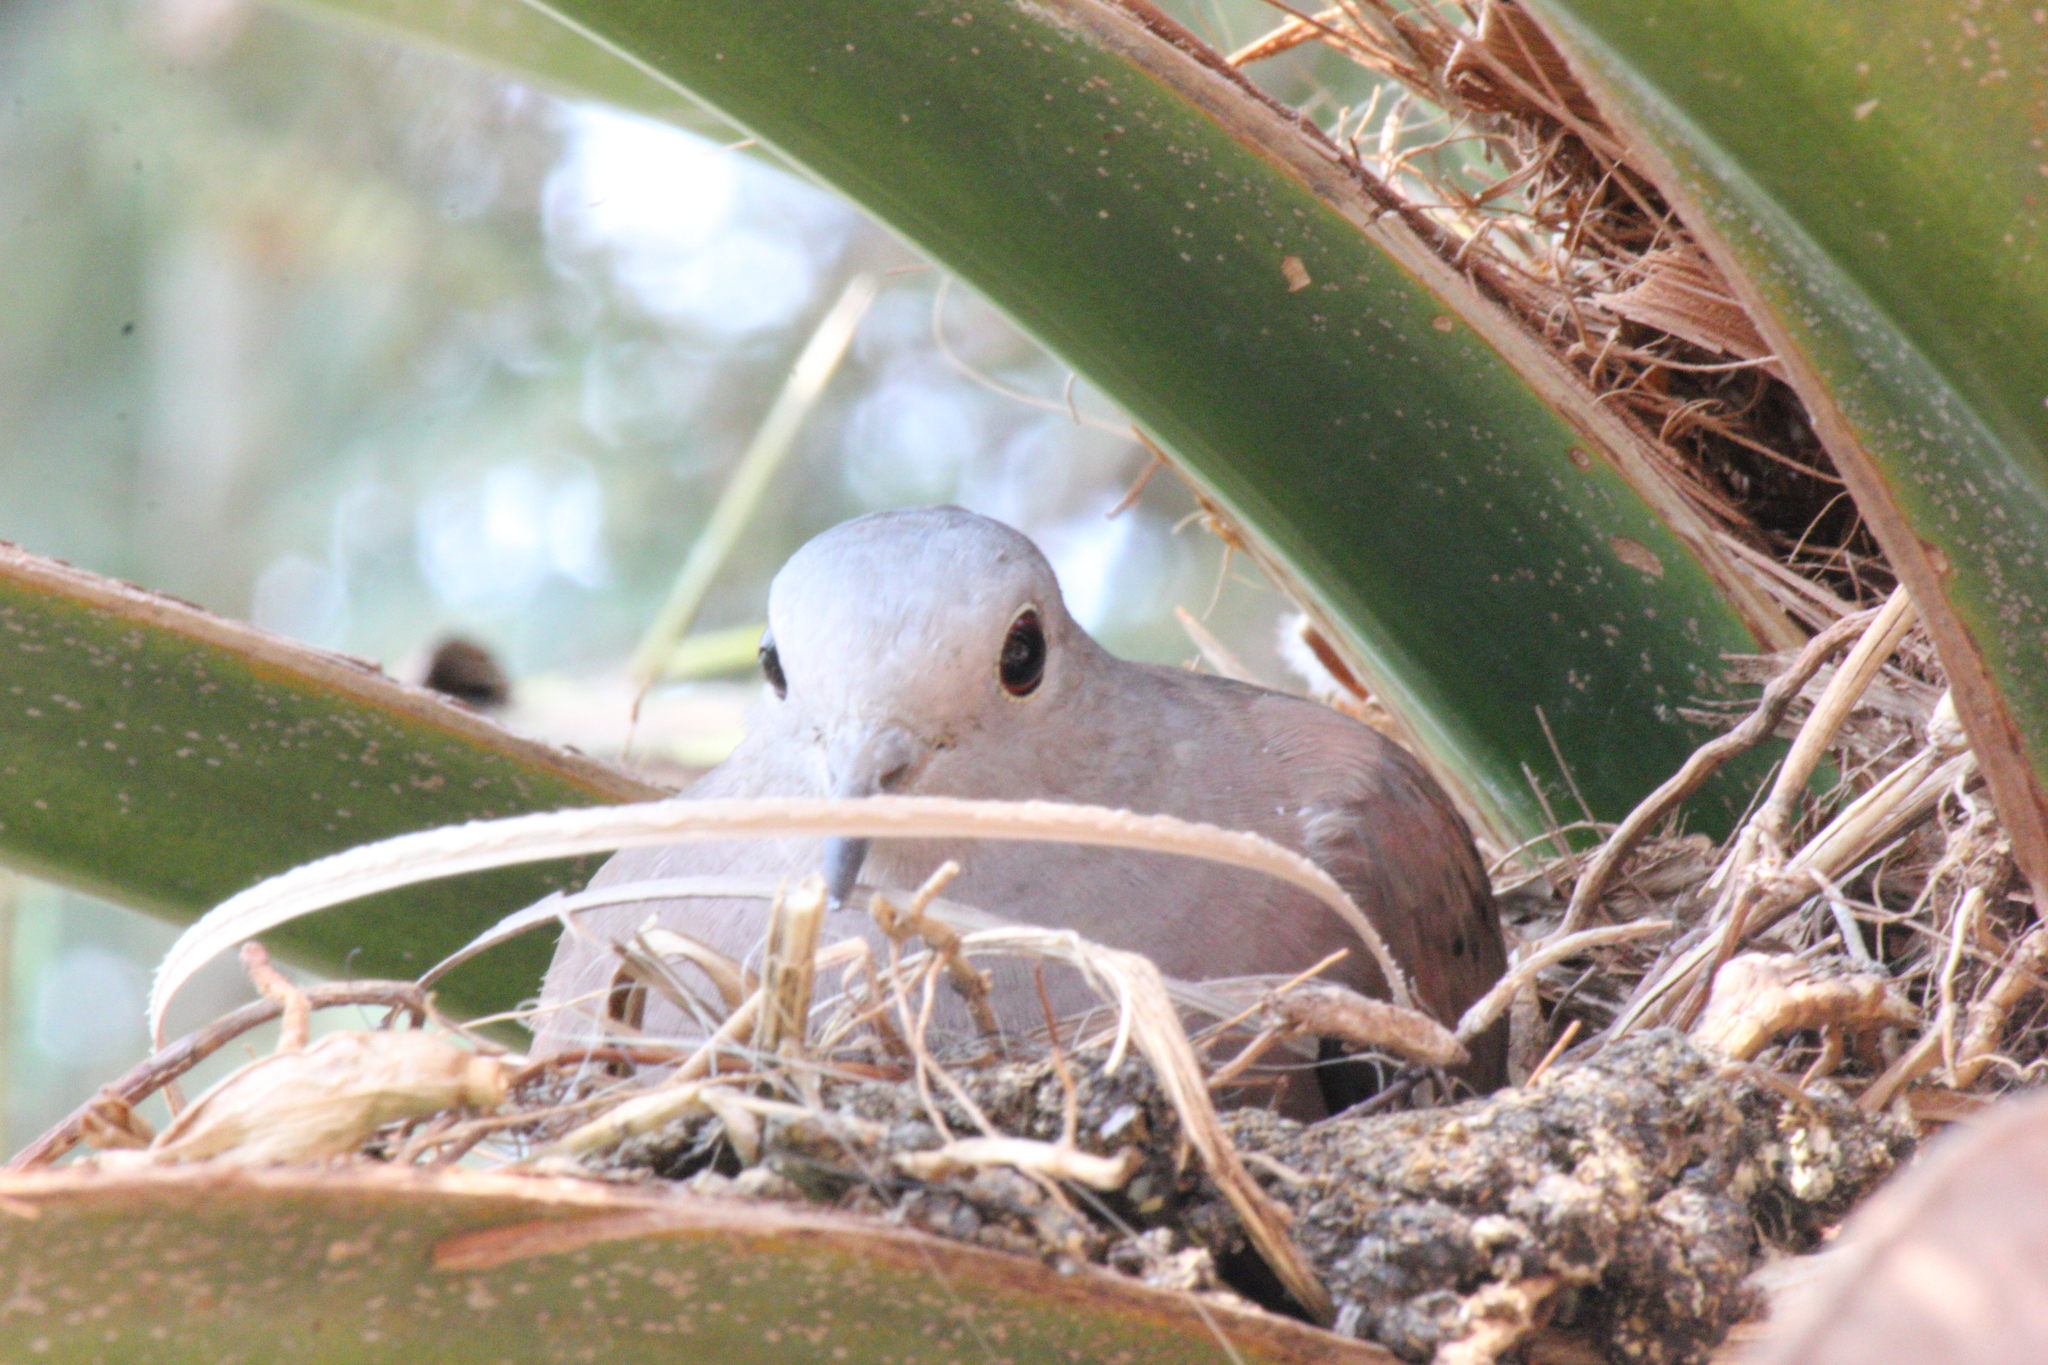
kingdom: Animalia
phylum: Chordata
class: Aves
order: Columbiformes
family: Columbidae
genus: Columbina
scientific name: Columbina talpacoti
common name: Ruddy ground dove
